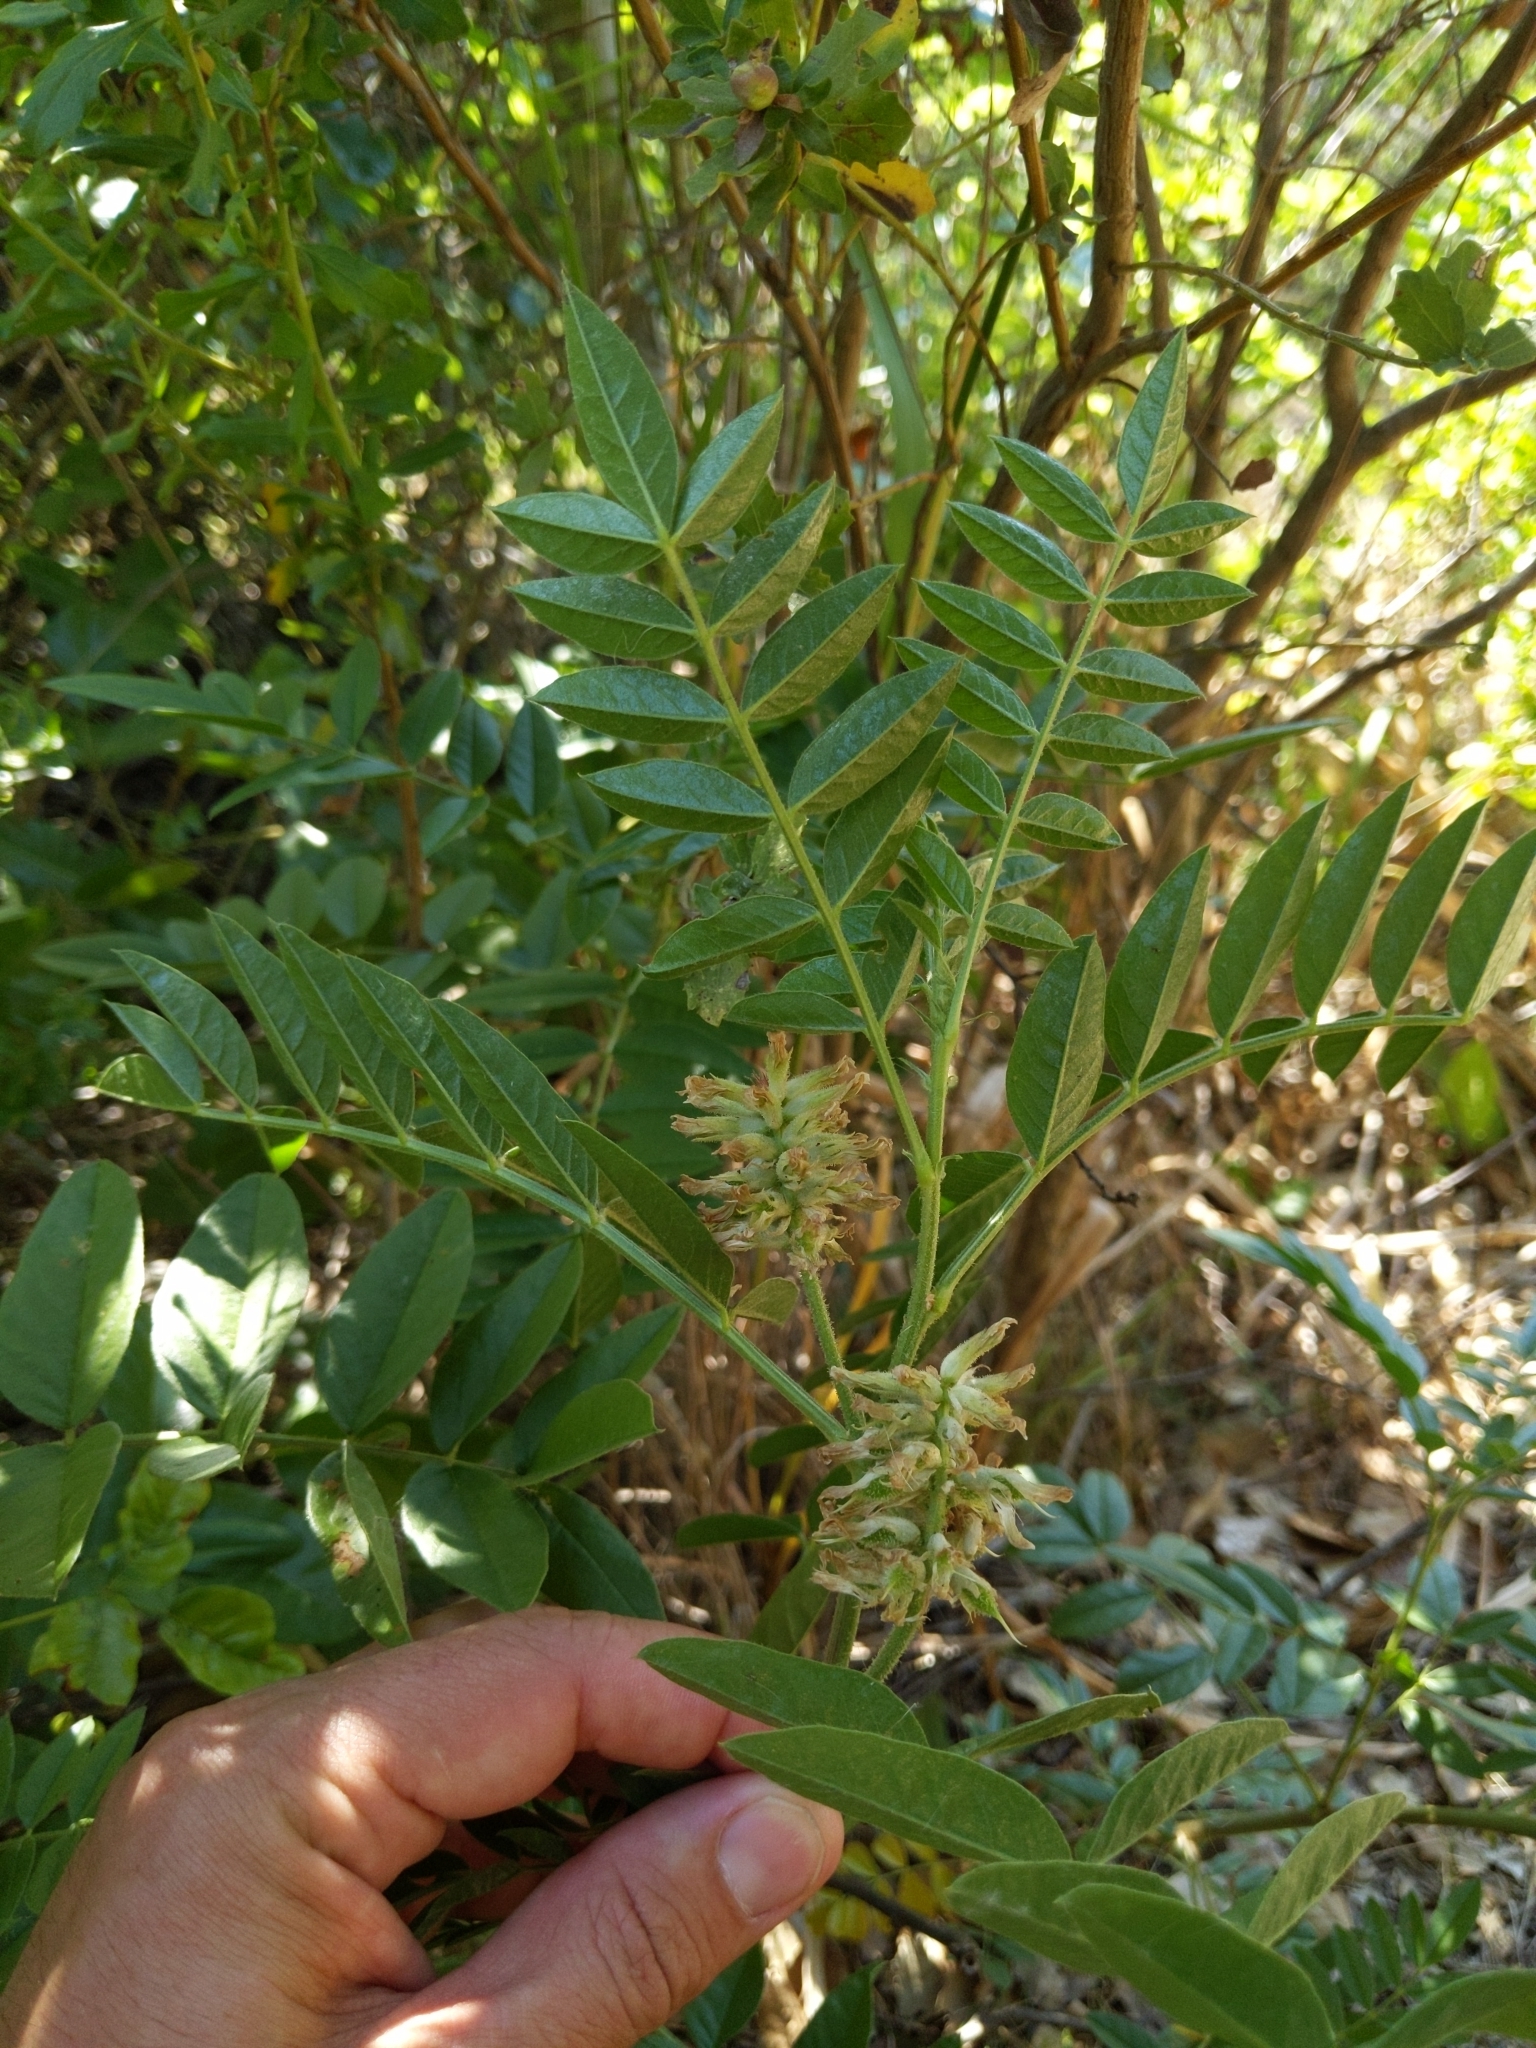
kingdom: Plantae
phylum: Tracheophyta
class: Magnoliopsida
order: Fabales
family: Fabaceae
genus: Glycyrrhiza
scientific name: Glycyrrhiza lepidota
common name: American liquorice
